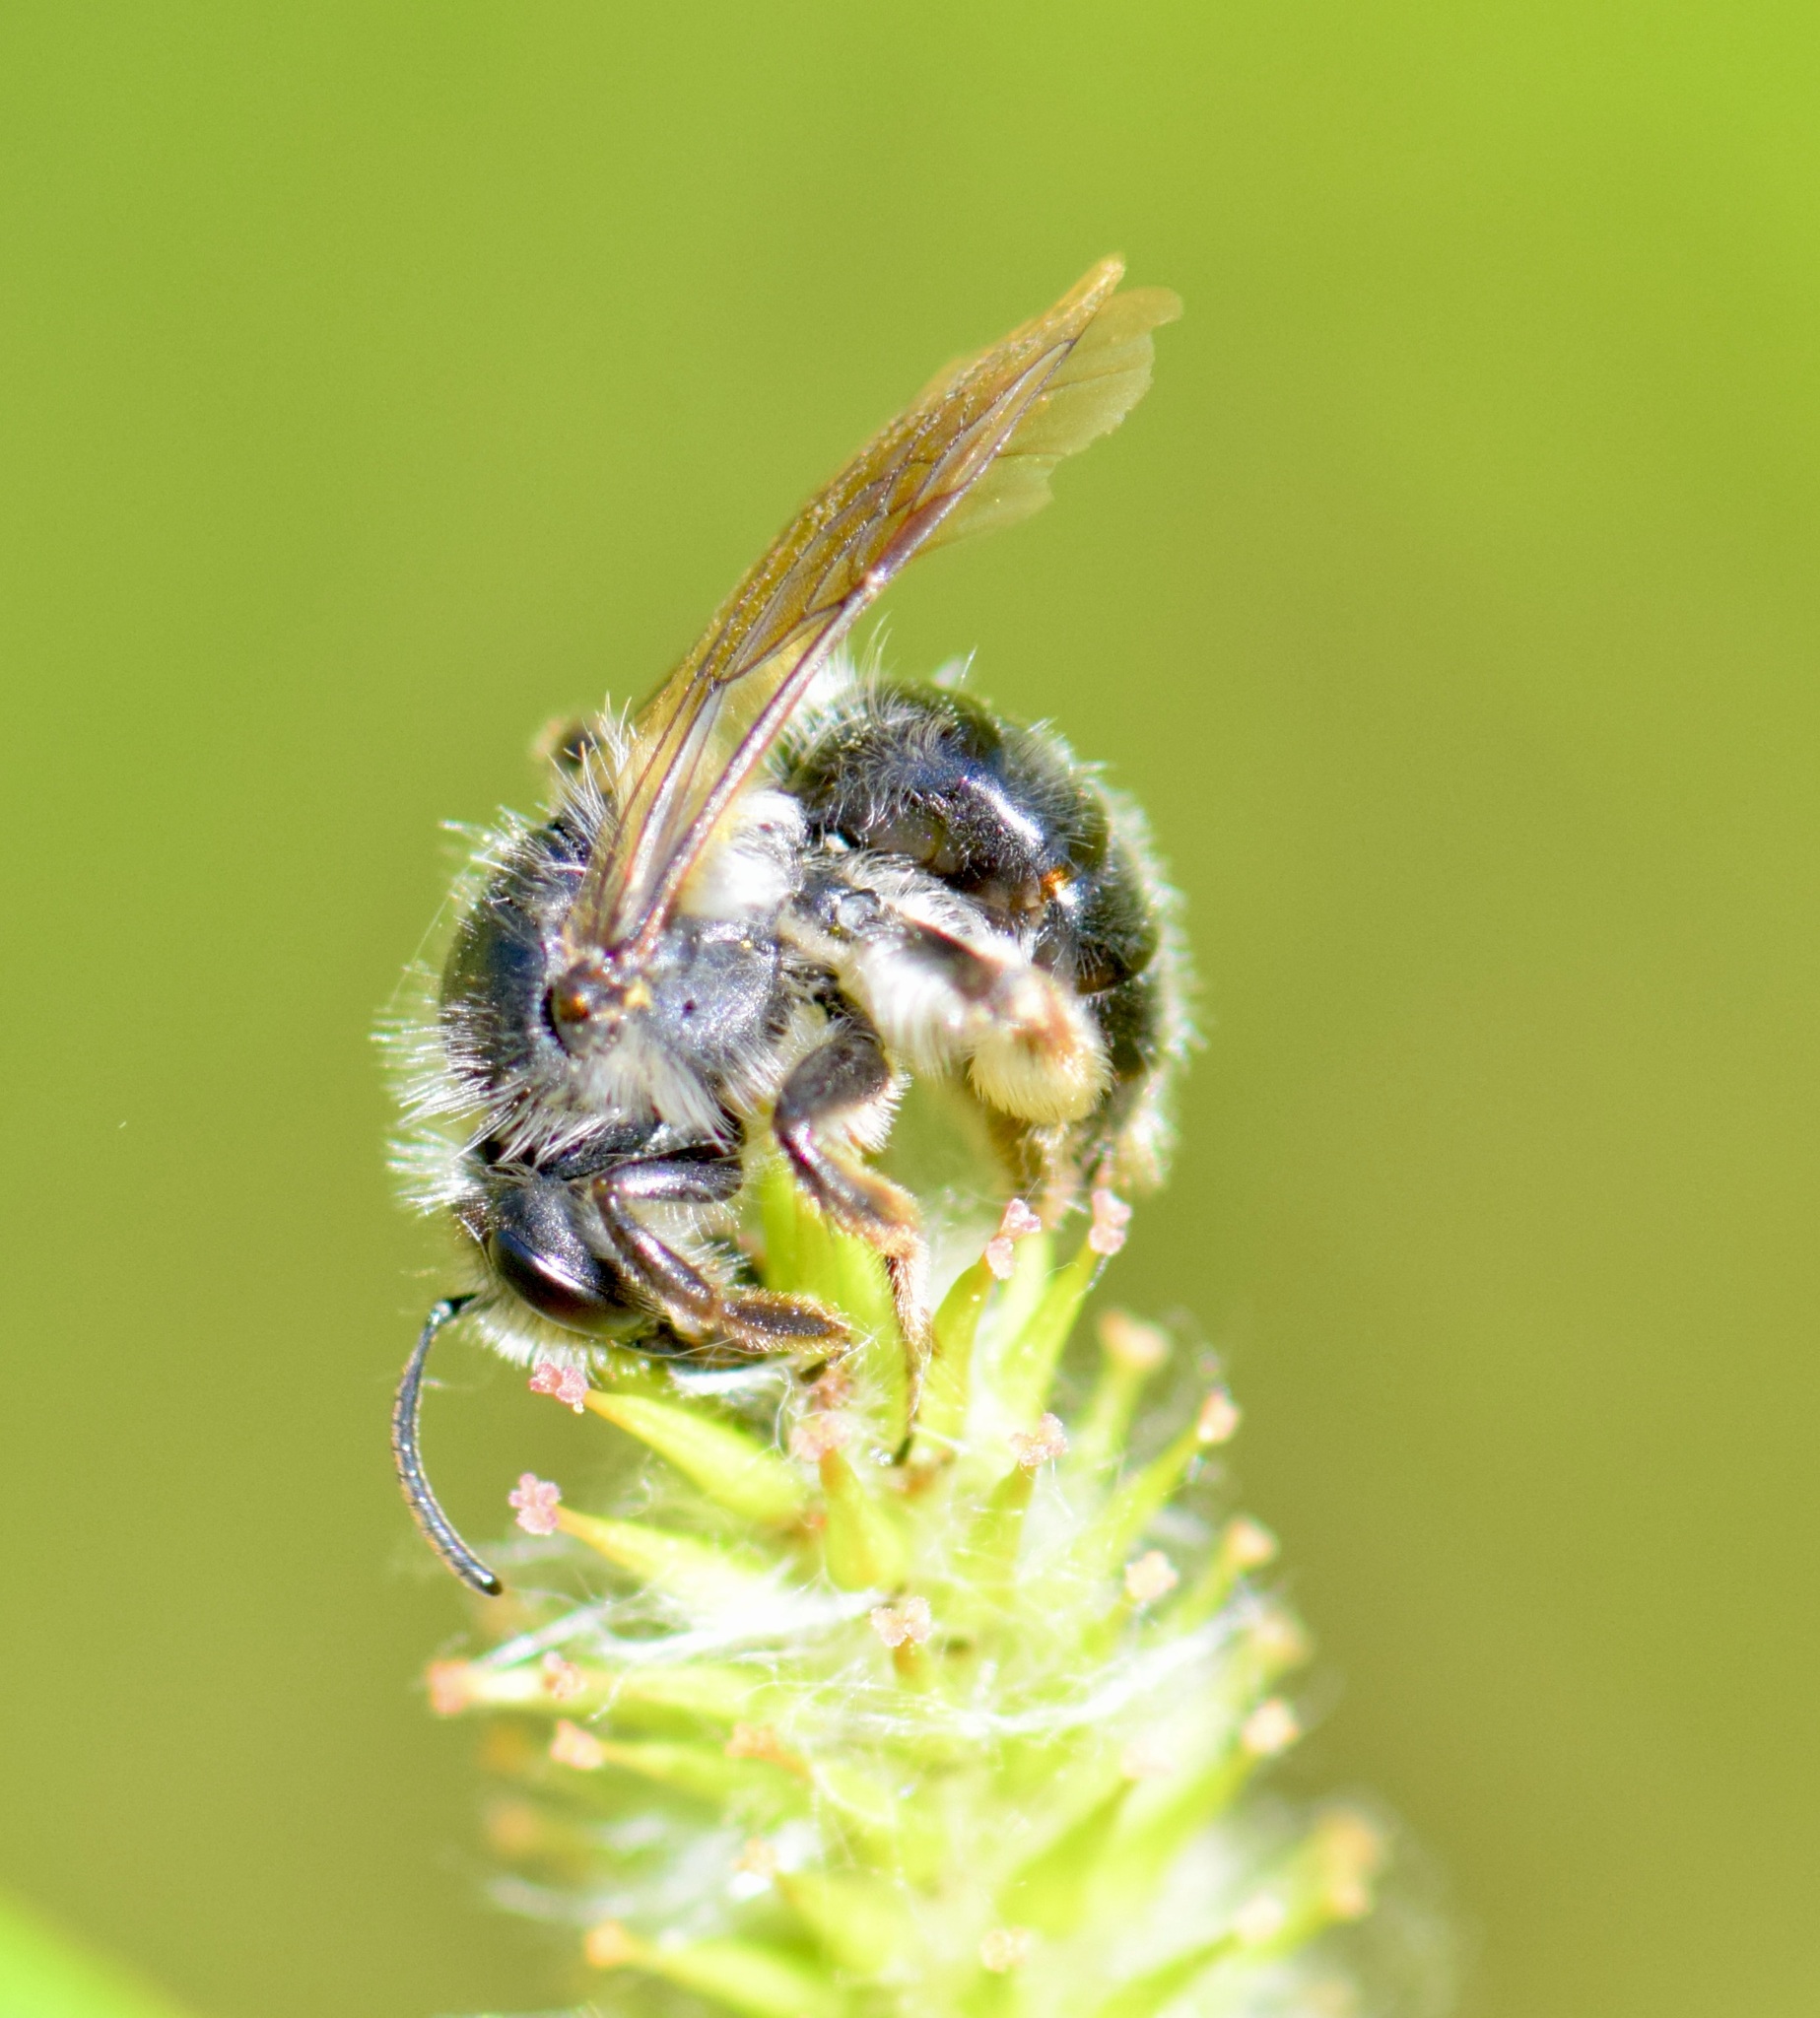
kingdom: Animalia
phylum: Arthropoda
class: Insecta
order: Hymenoptera
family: Andrenidae
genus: Andrena
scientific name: Andrena frigida
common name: Frigid mining bee
